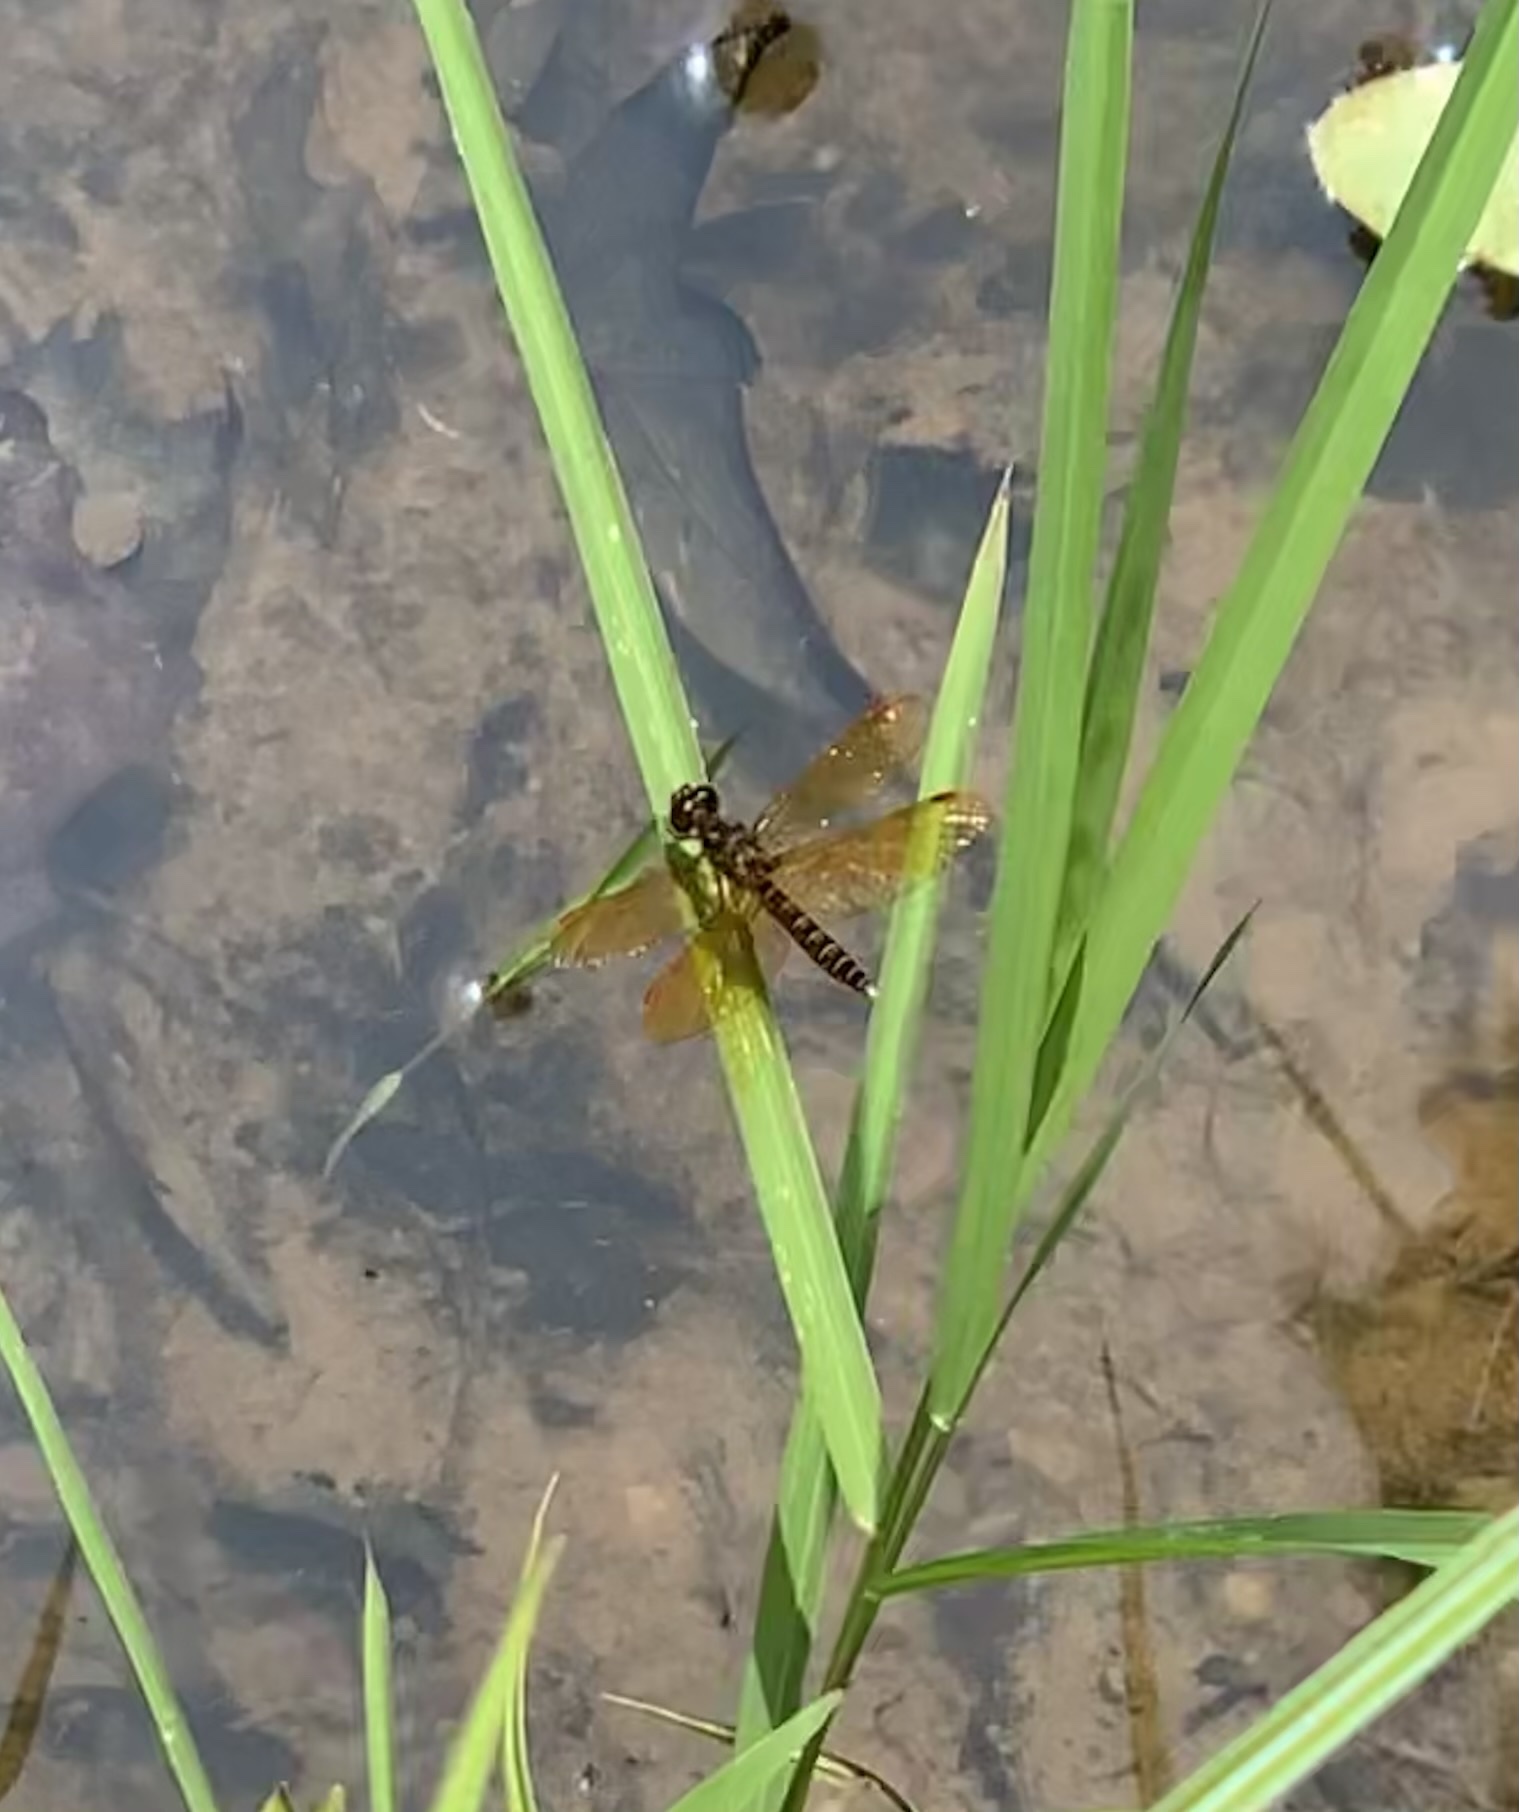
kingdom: Animalia
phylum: Arthropoda
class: Insecta
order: Odonata
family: Libellulidae
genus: Perithemis
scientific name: Perithemis tenera
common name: Eastern amberwing
